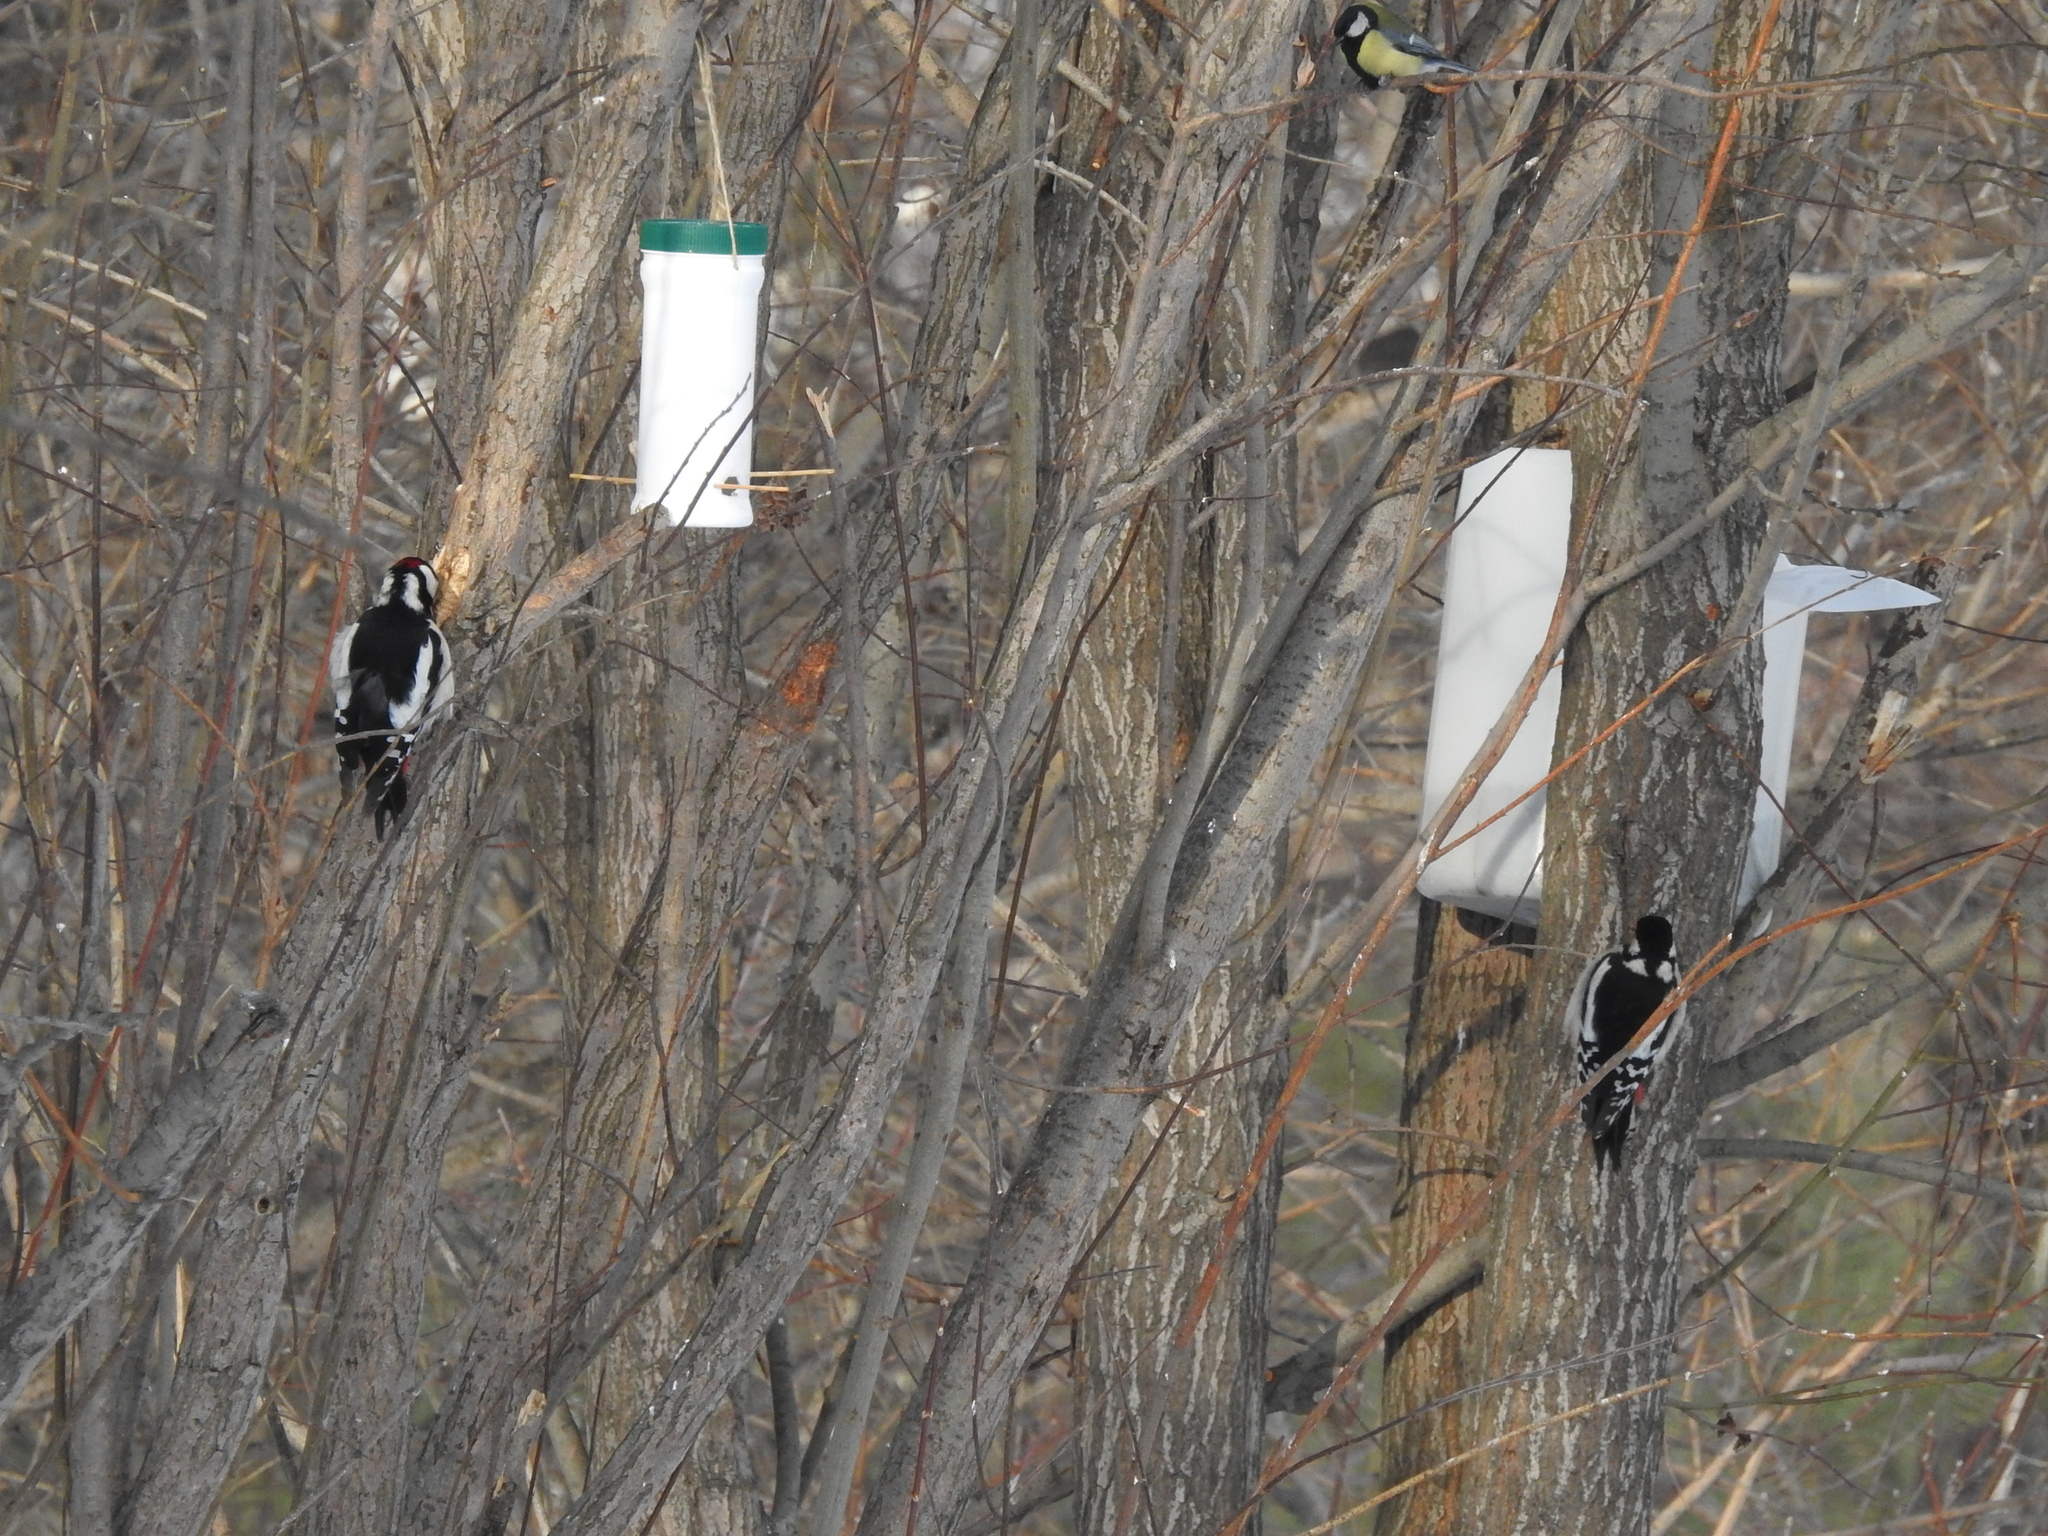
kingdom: Animalia
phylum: Chordata
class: Aves
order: Piciformes
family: Picidae
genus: Dendrocopos
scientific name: Dendrocopos major
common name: Great spotted woodpecker
